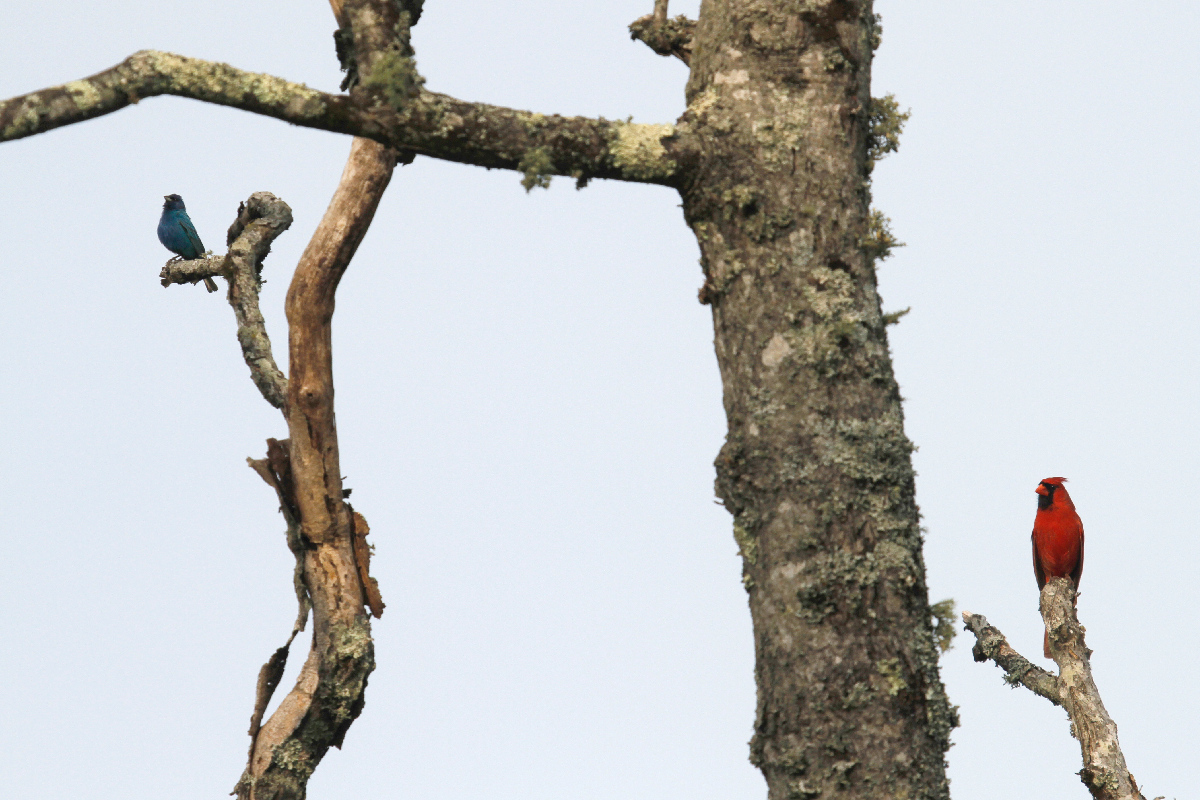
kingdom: Animalia
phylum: Chordata
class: Aves
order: Passeriformes
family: Cardinalidae
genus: Passerina
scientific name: Passerina cyanea
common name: Indigo bunting
